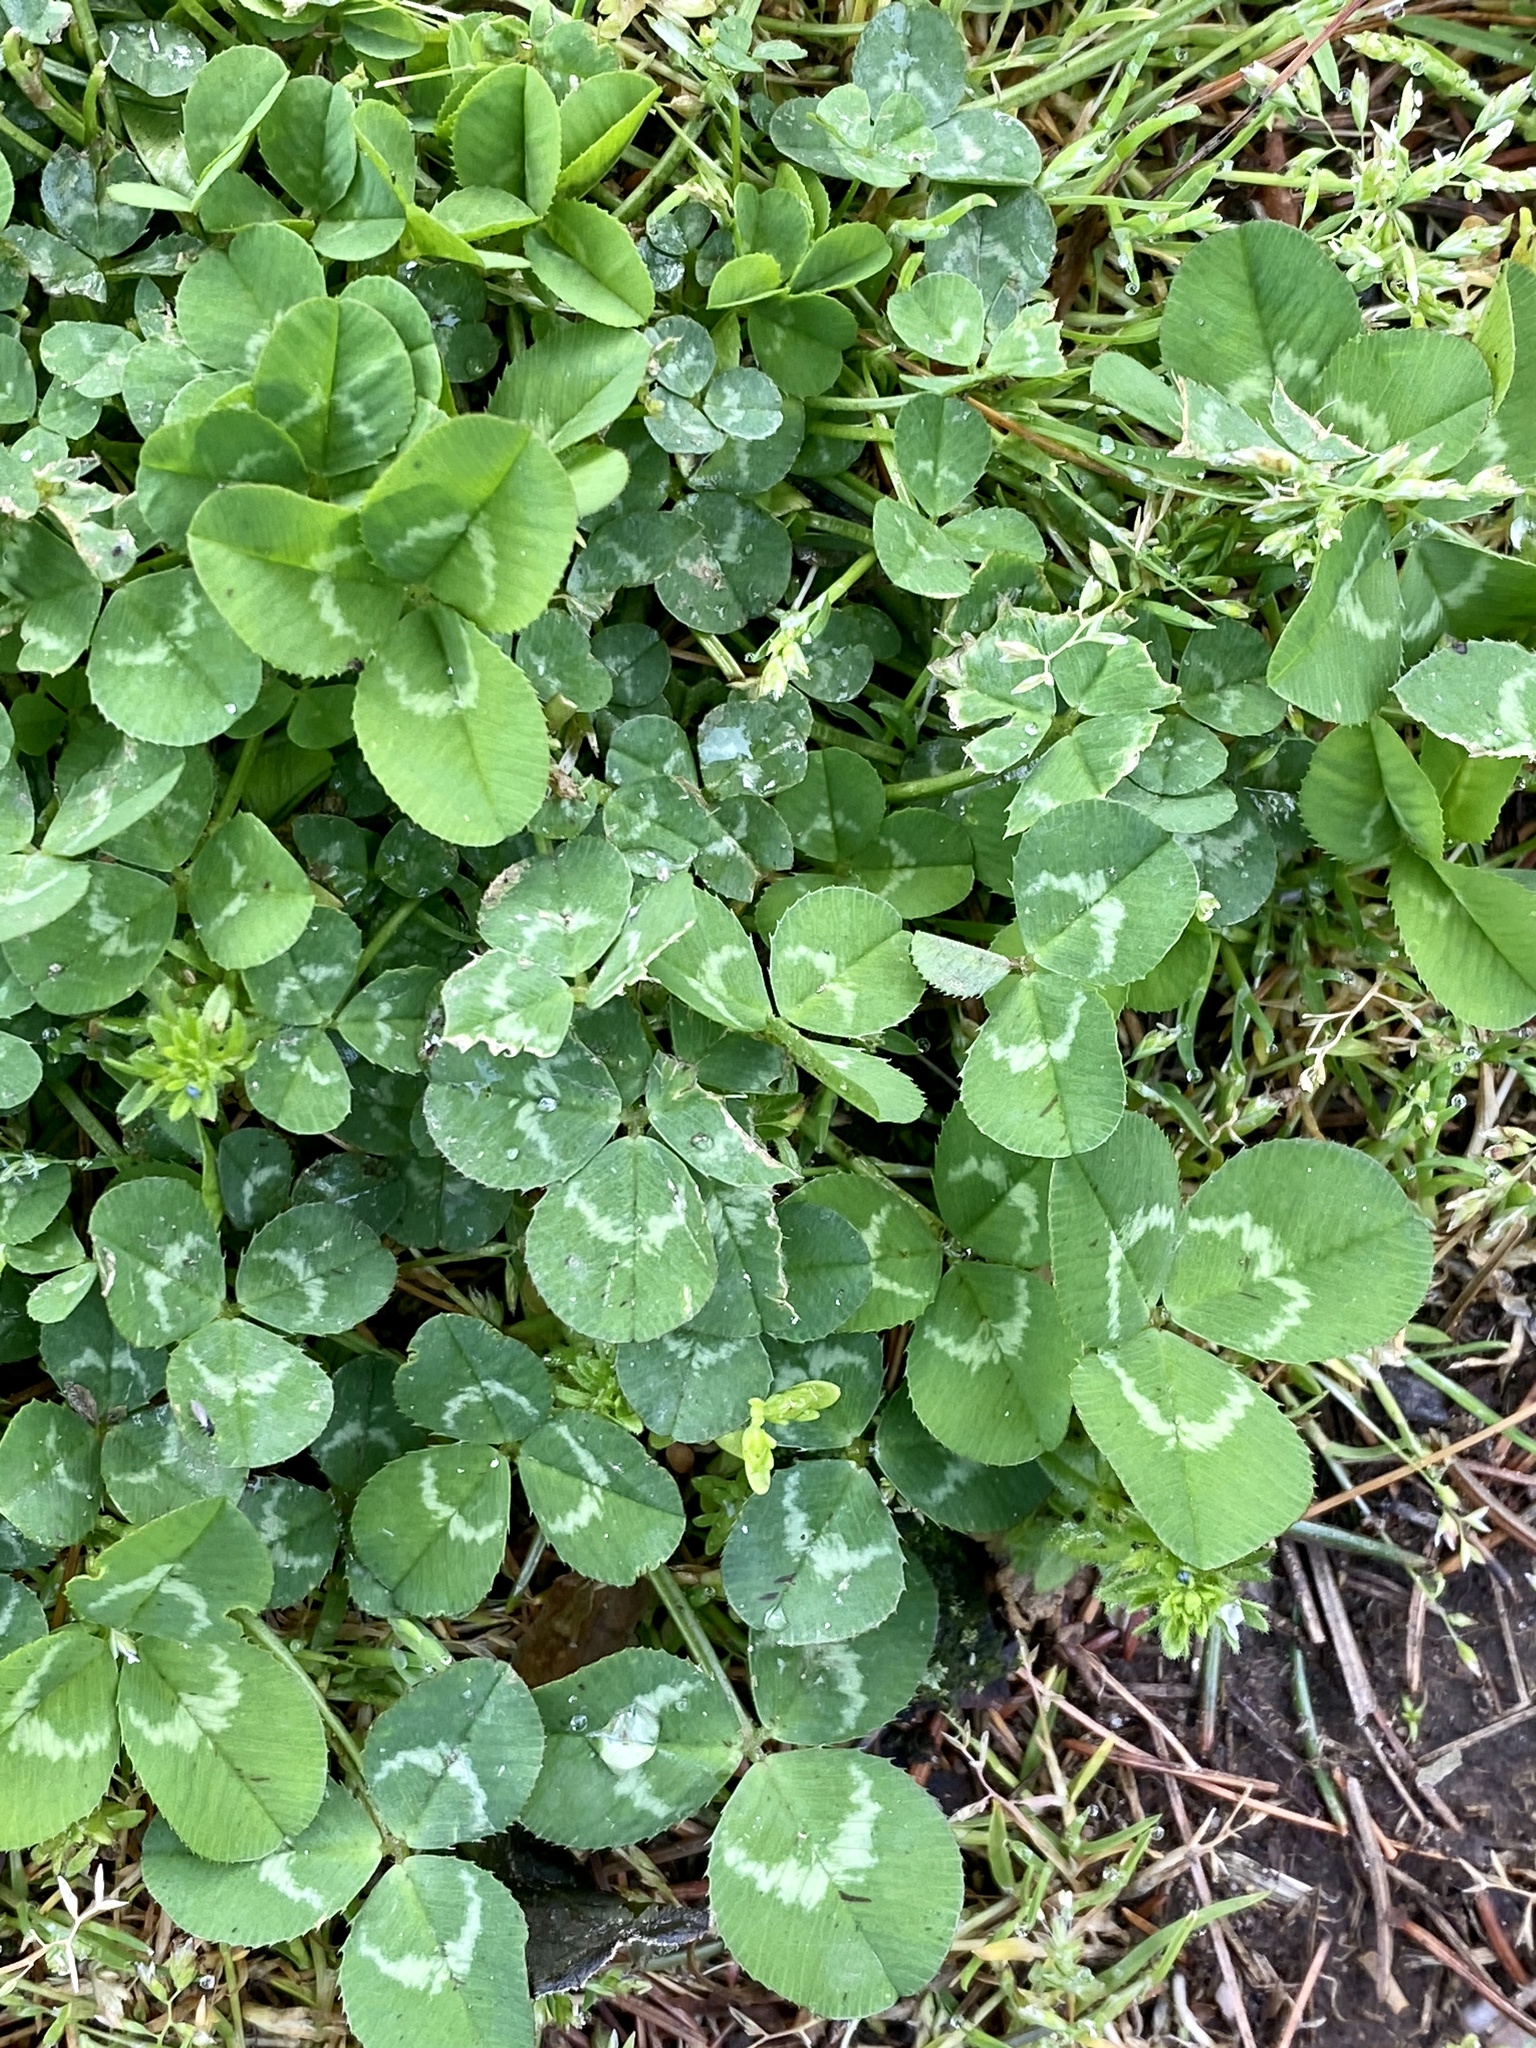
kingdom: Plantae
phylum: Tracheophyta
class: Magnoliopsida
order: Fabales
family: Fabaceae
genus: Trifolium
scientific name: Trifolium repens
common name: White clover
